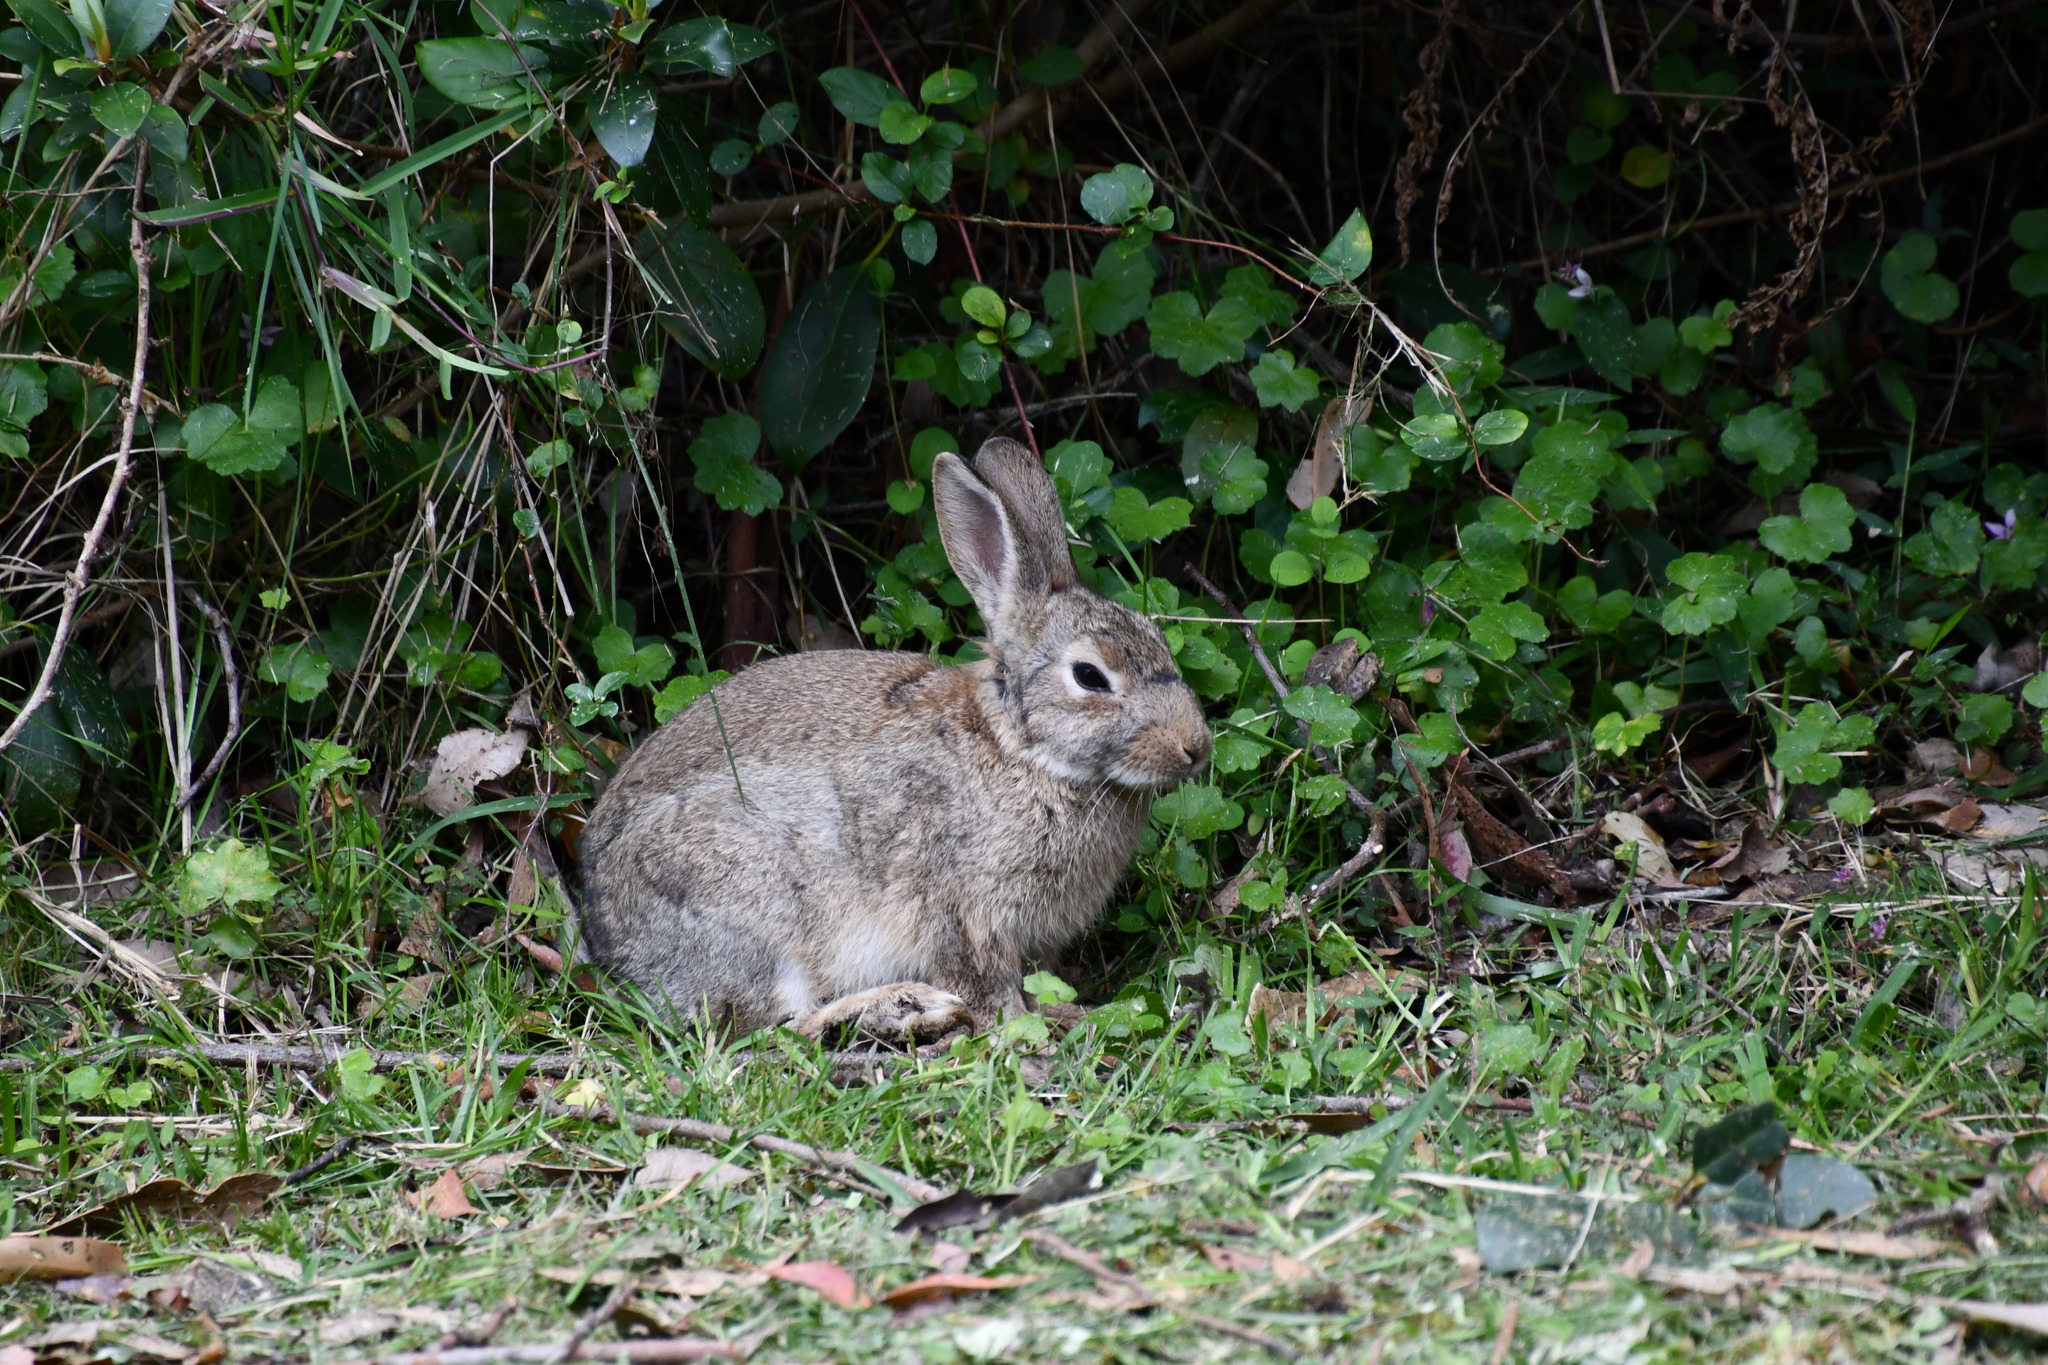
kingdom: Animalia
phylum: Chordata
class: Mammalia
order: Lagomorpha
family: Leporidae
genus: Oryctolagus
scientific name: Oryctolagus cuniculus
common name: European rabbit
